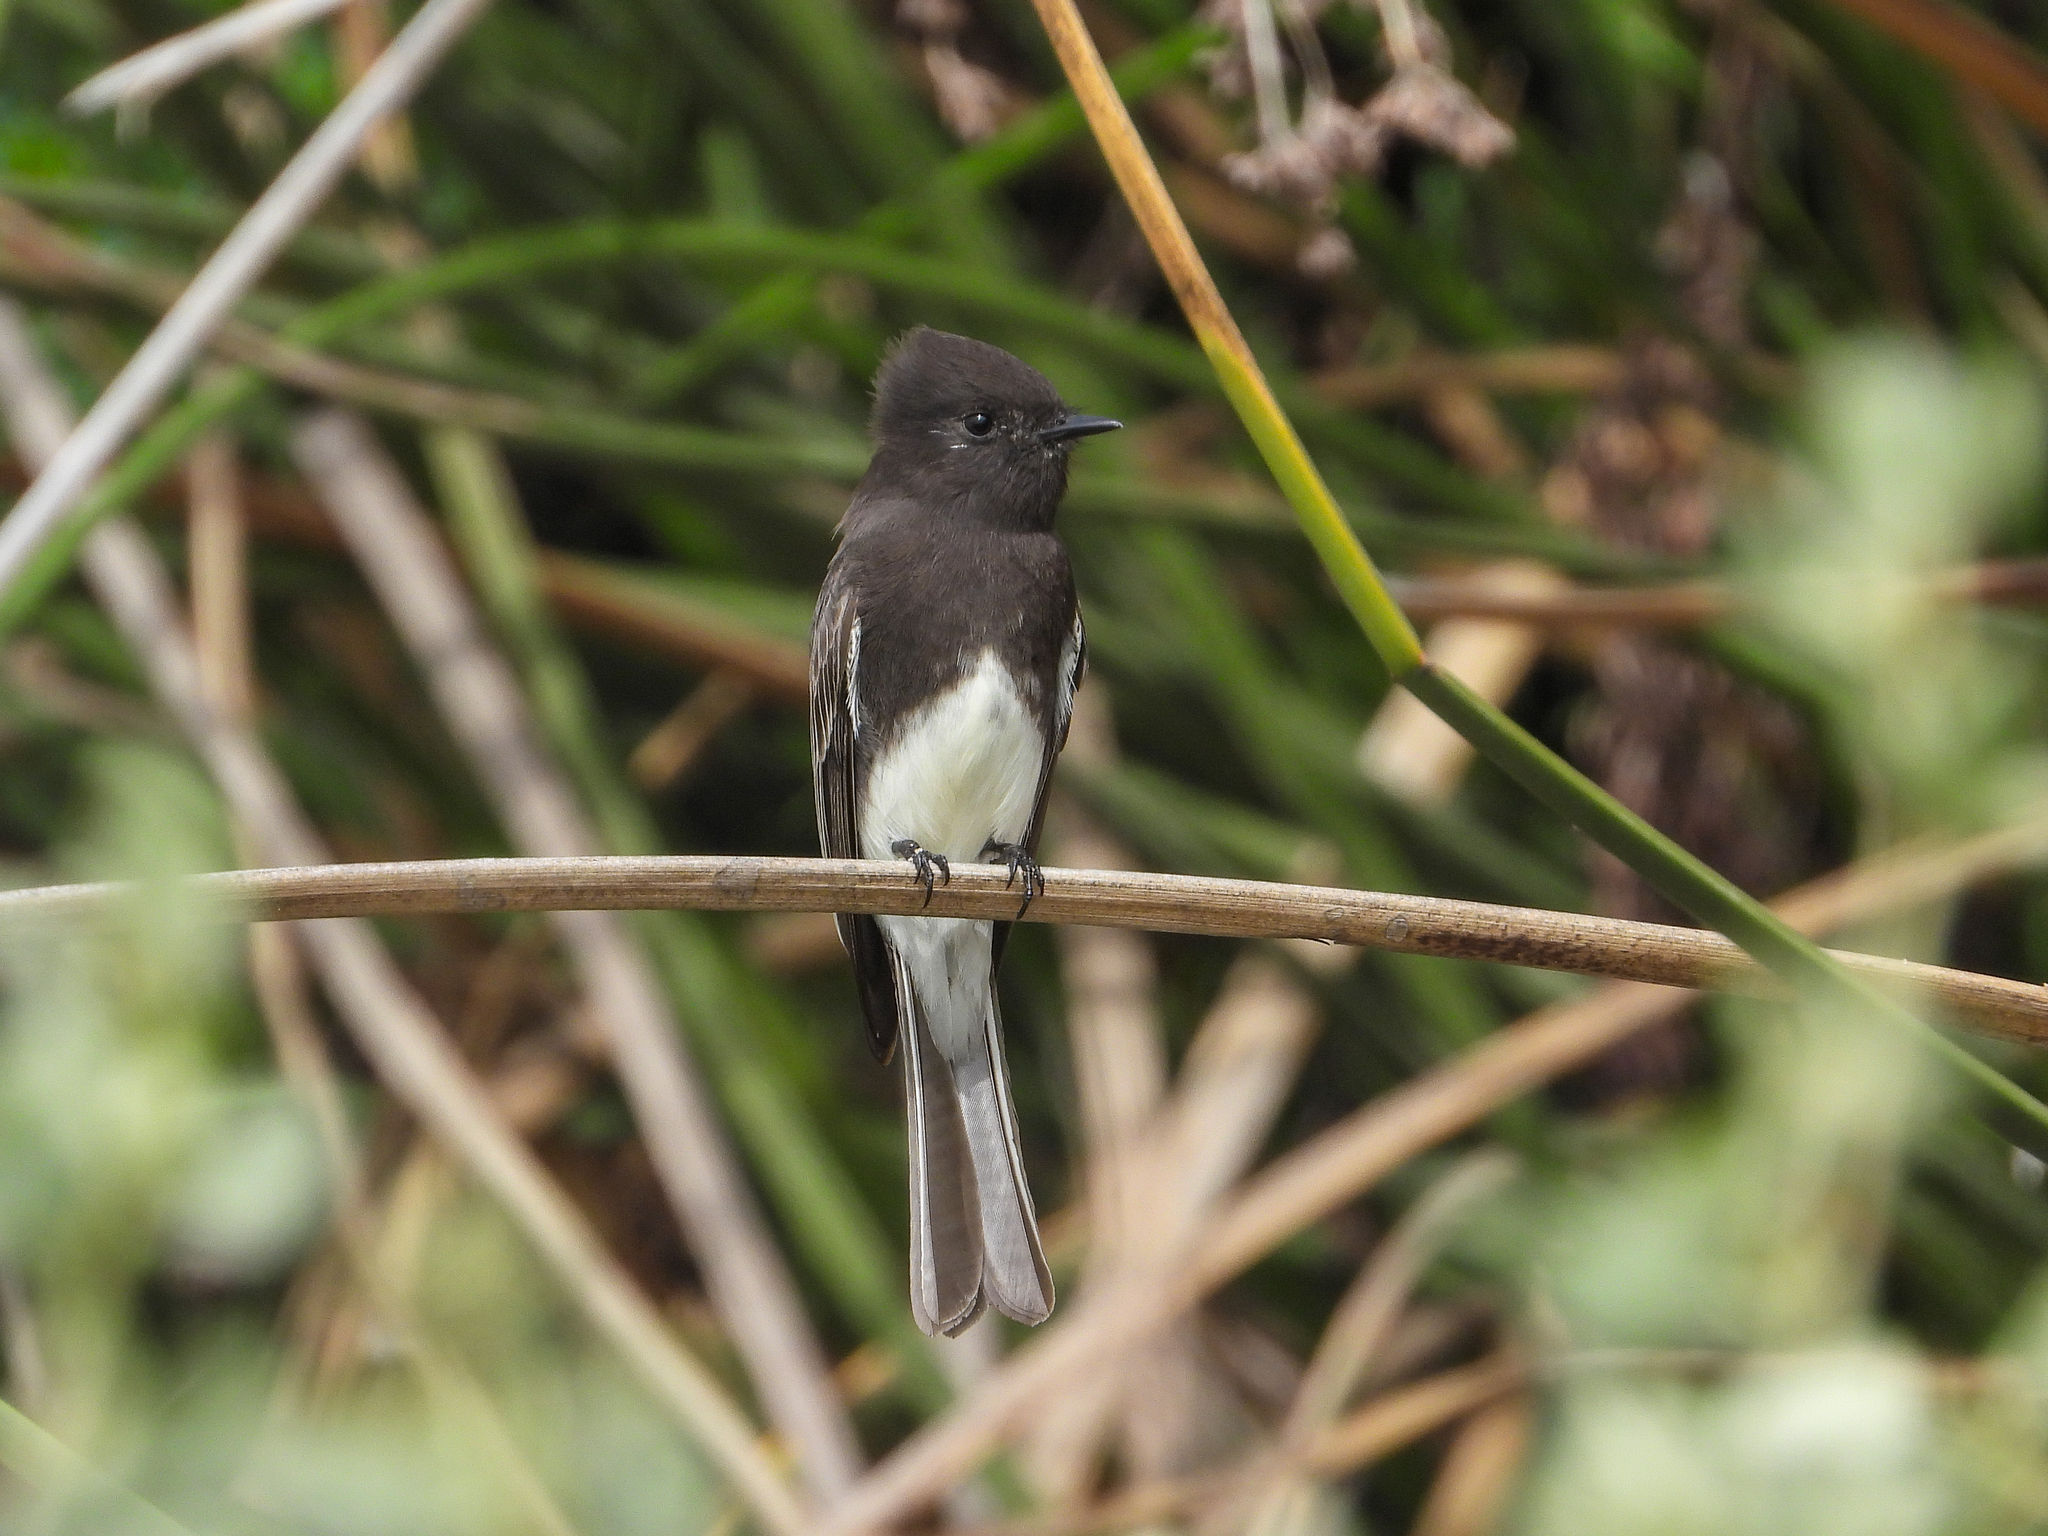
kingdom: Animalia
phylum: Chordata
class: Aves
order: Passeriformes
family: Tyrannidae
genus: Sayornis
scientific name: Sayornis nigricans
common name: Black phoebe
